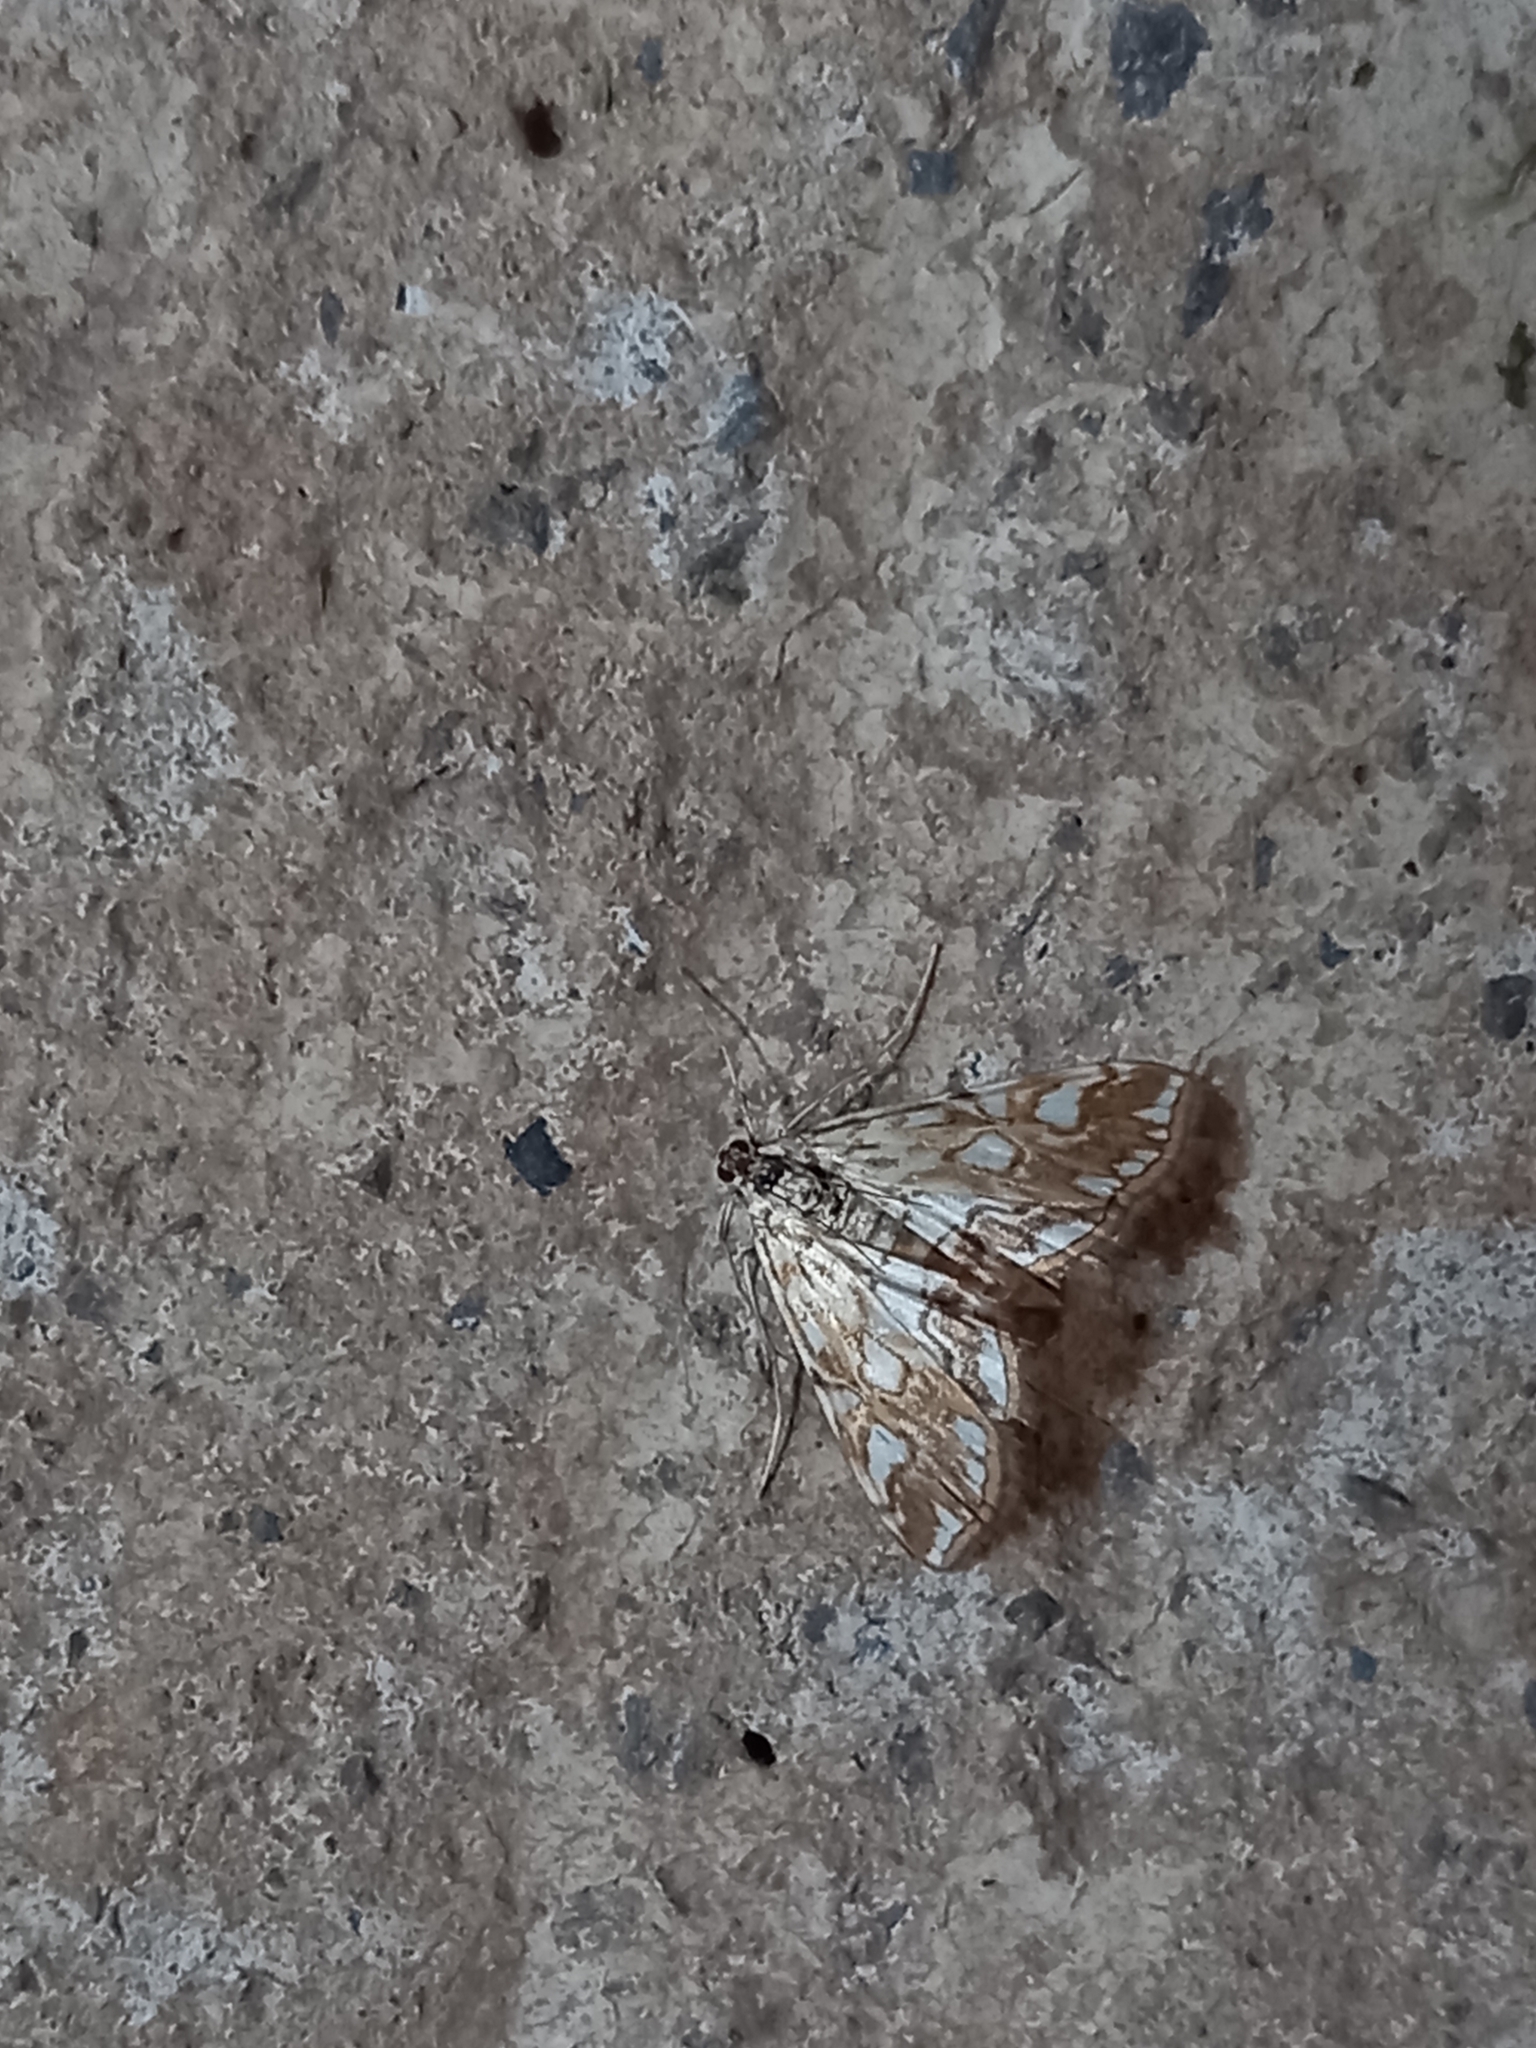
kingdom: Animalia
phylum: Arthropoda
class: Insecta
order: Lepidoptera
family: Crambidae
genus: Elophila
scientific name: Elophila nymphaeata
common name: Brown china-mark
